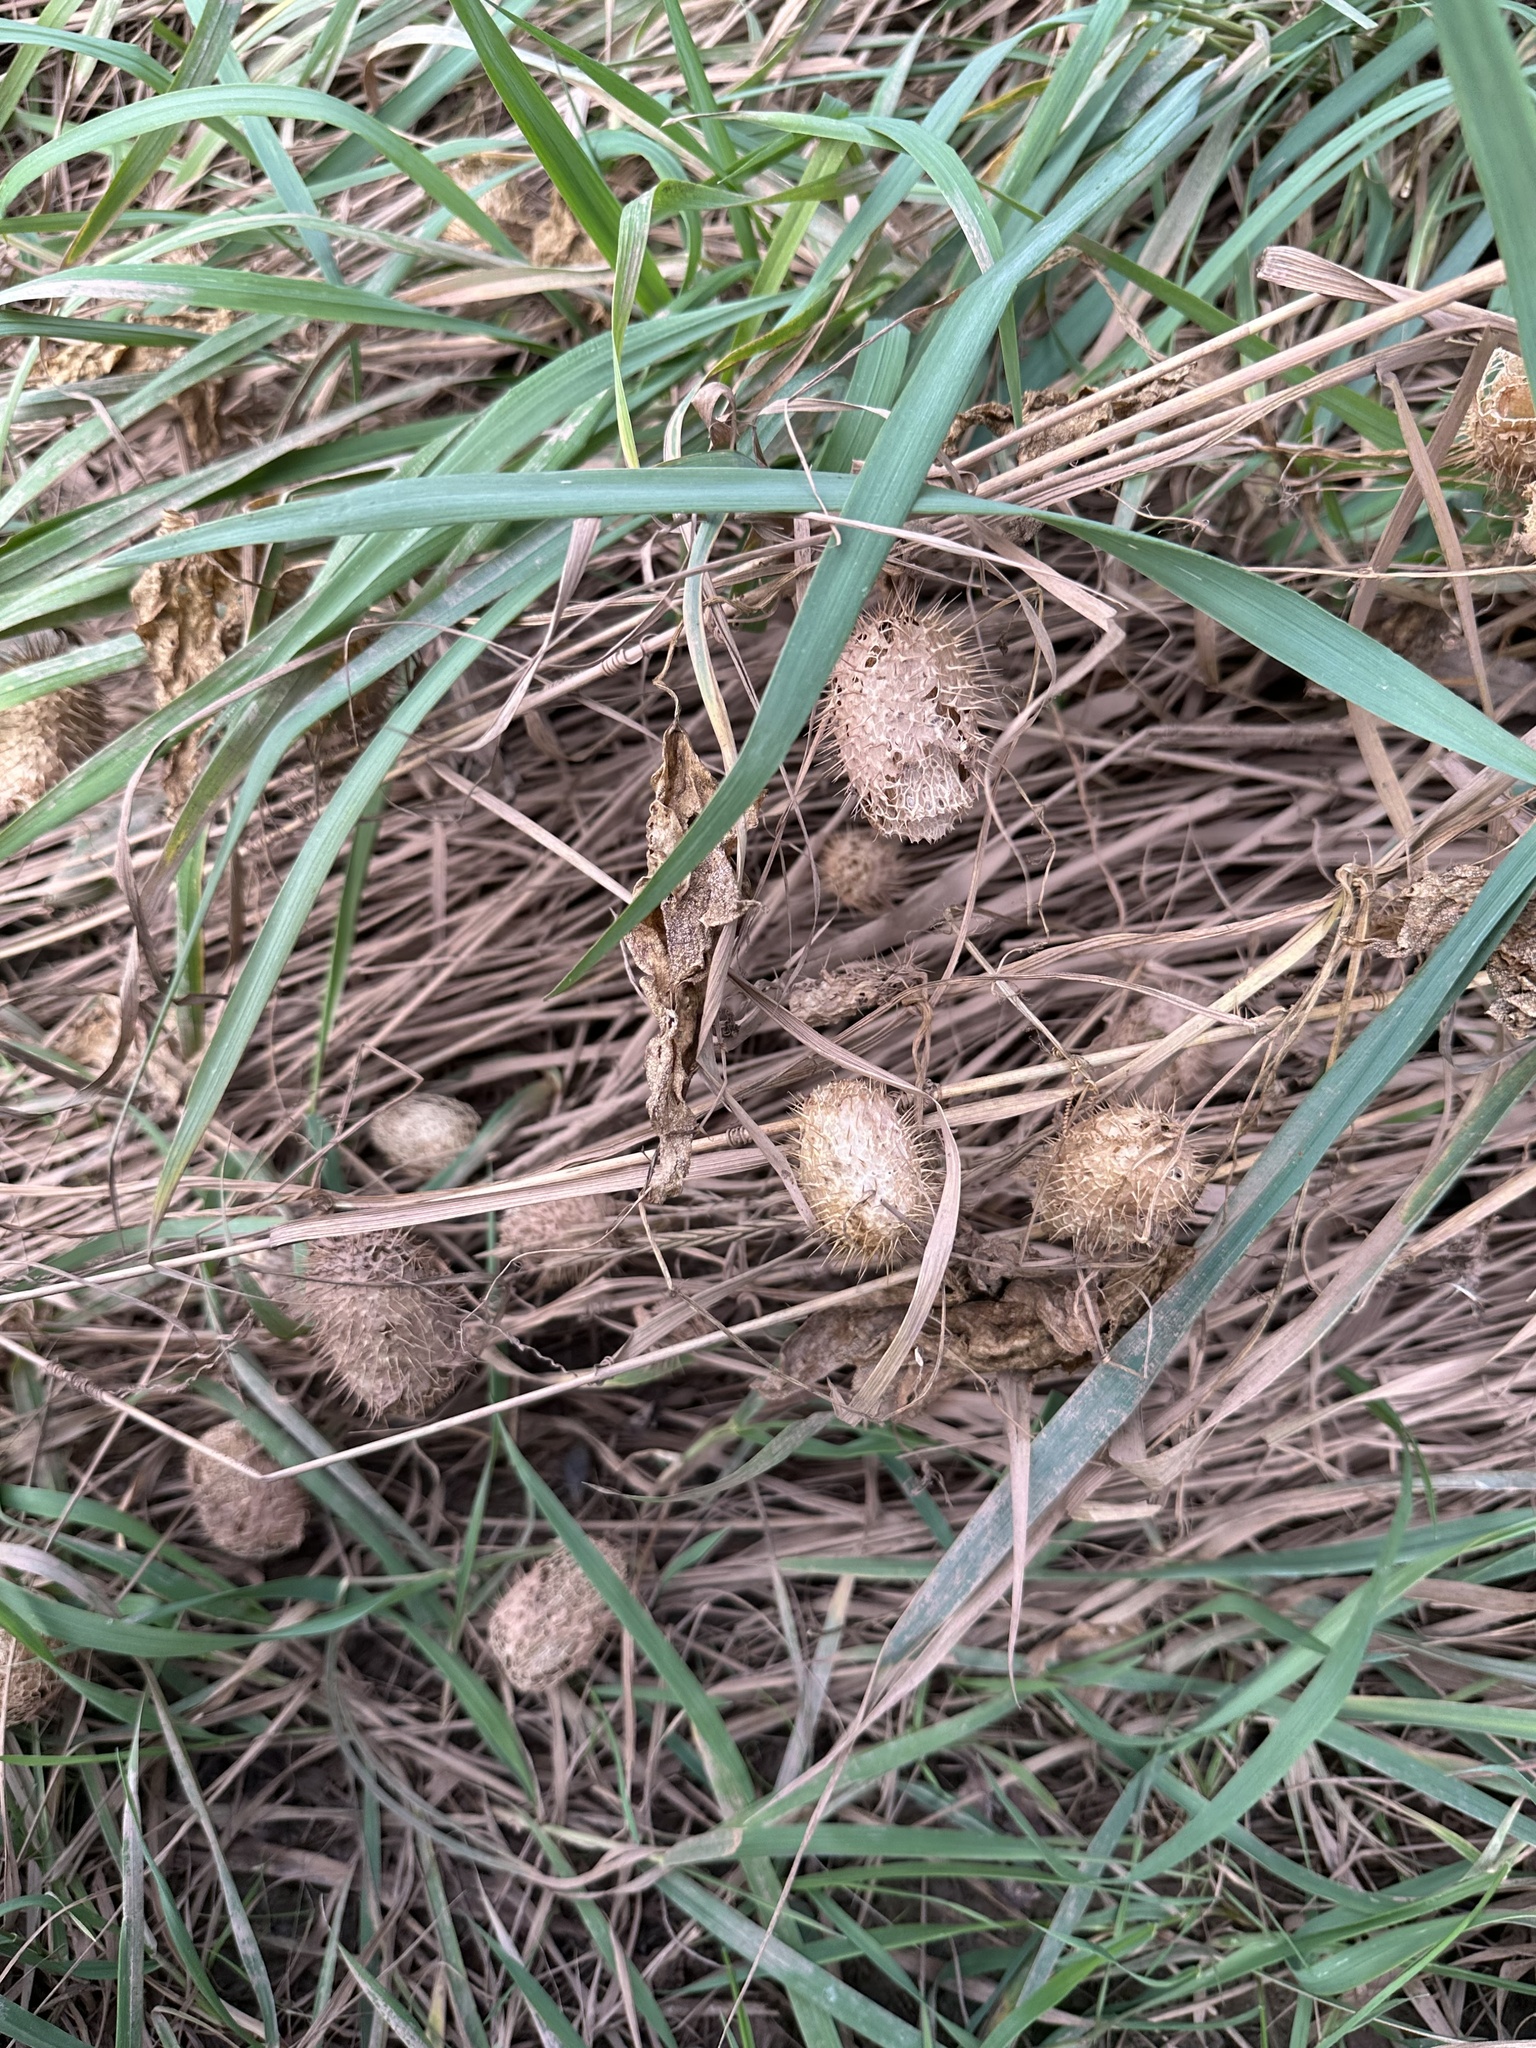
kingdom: Plantae
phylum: Tracheophyta
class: Magnoliopsida
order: Cucurbitales
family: Cucurbitaceae
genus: Echinocystis
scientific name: Echinocystis lobata
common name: Wild cucumber
